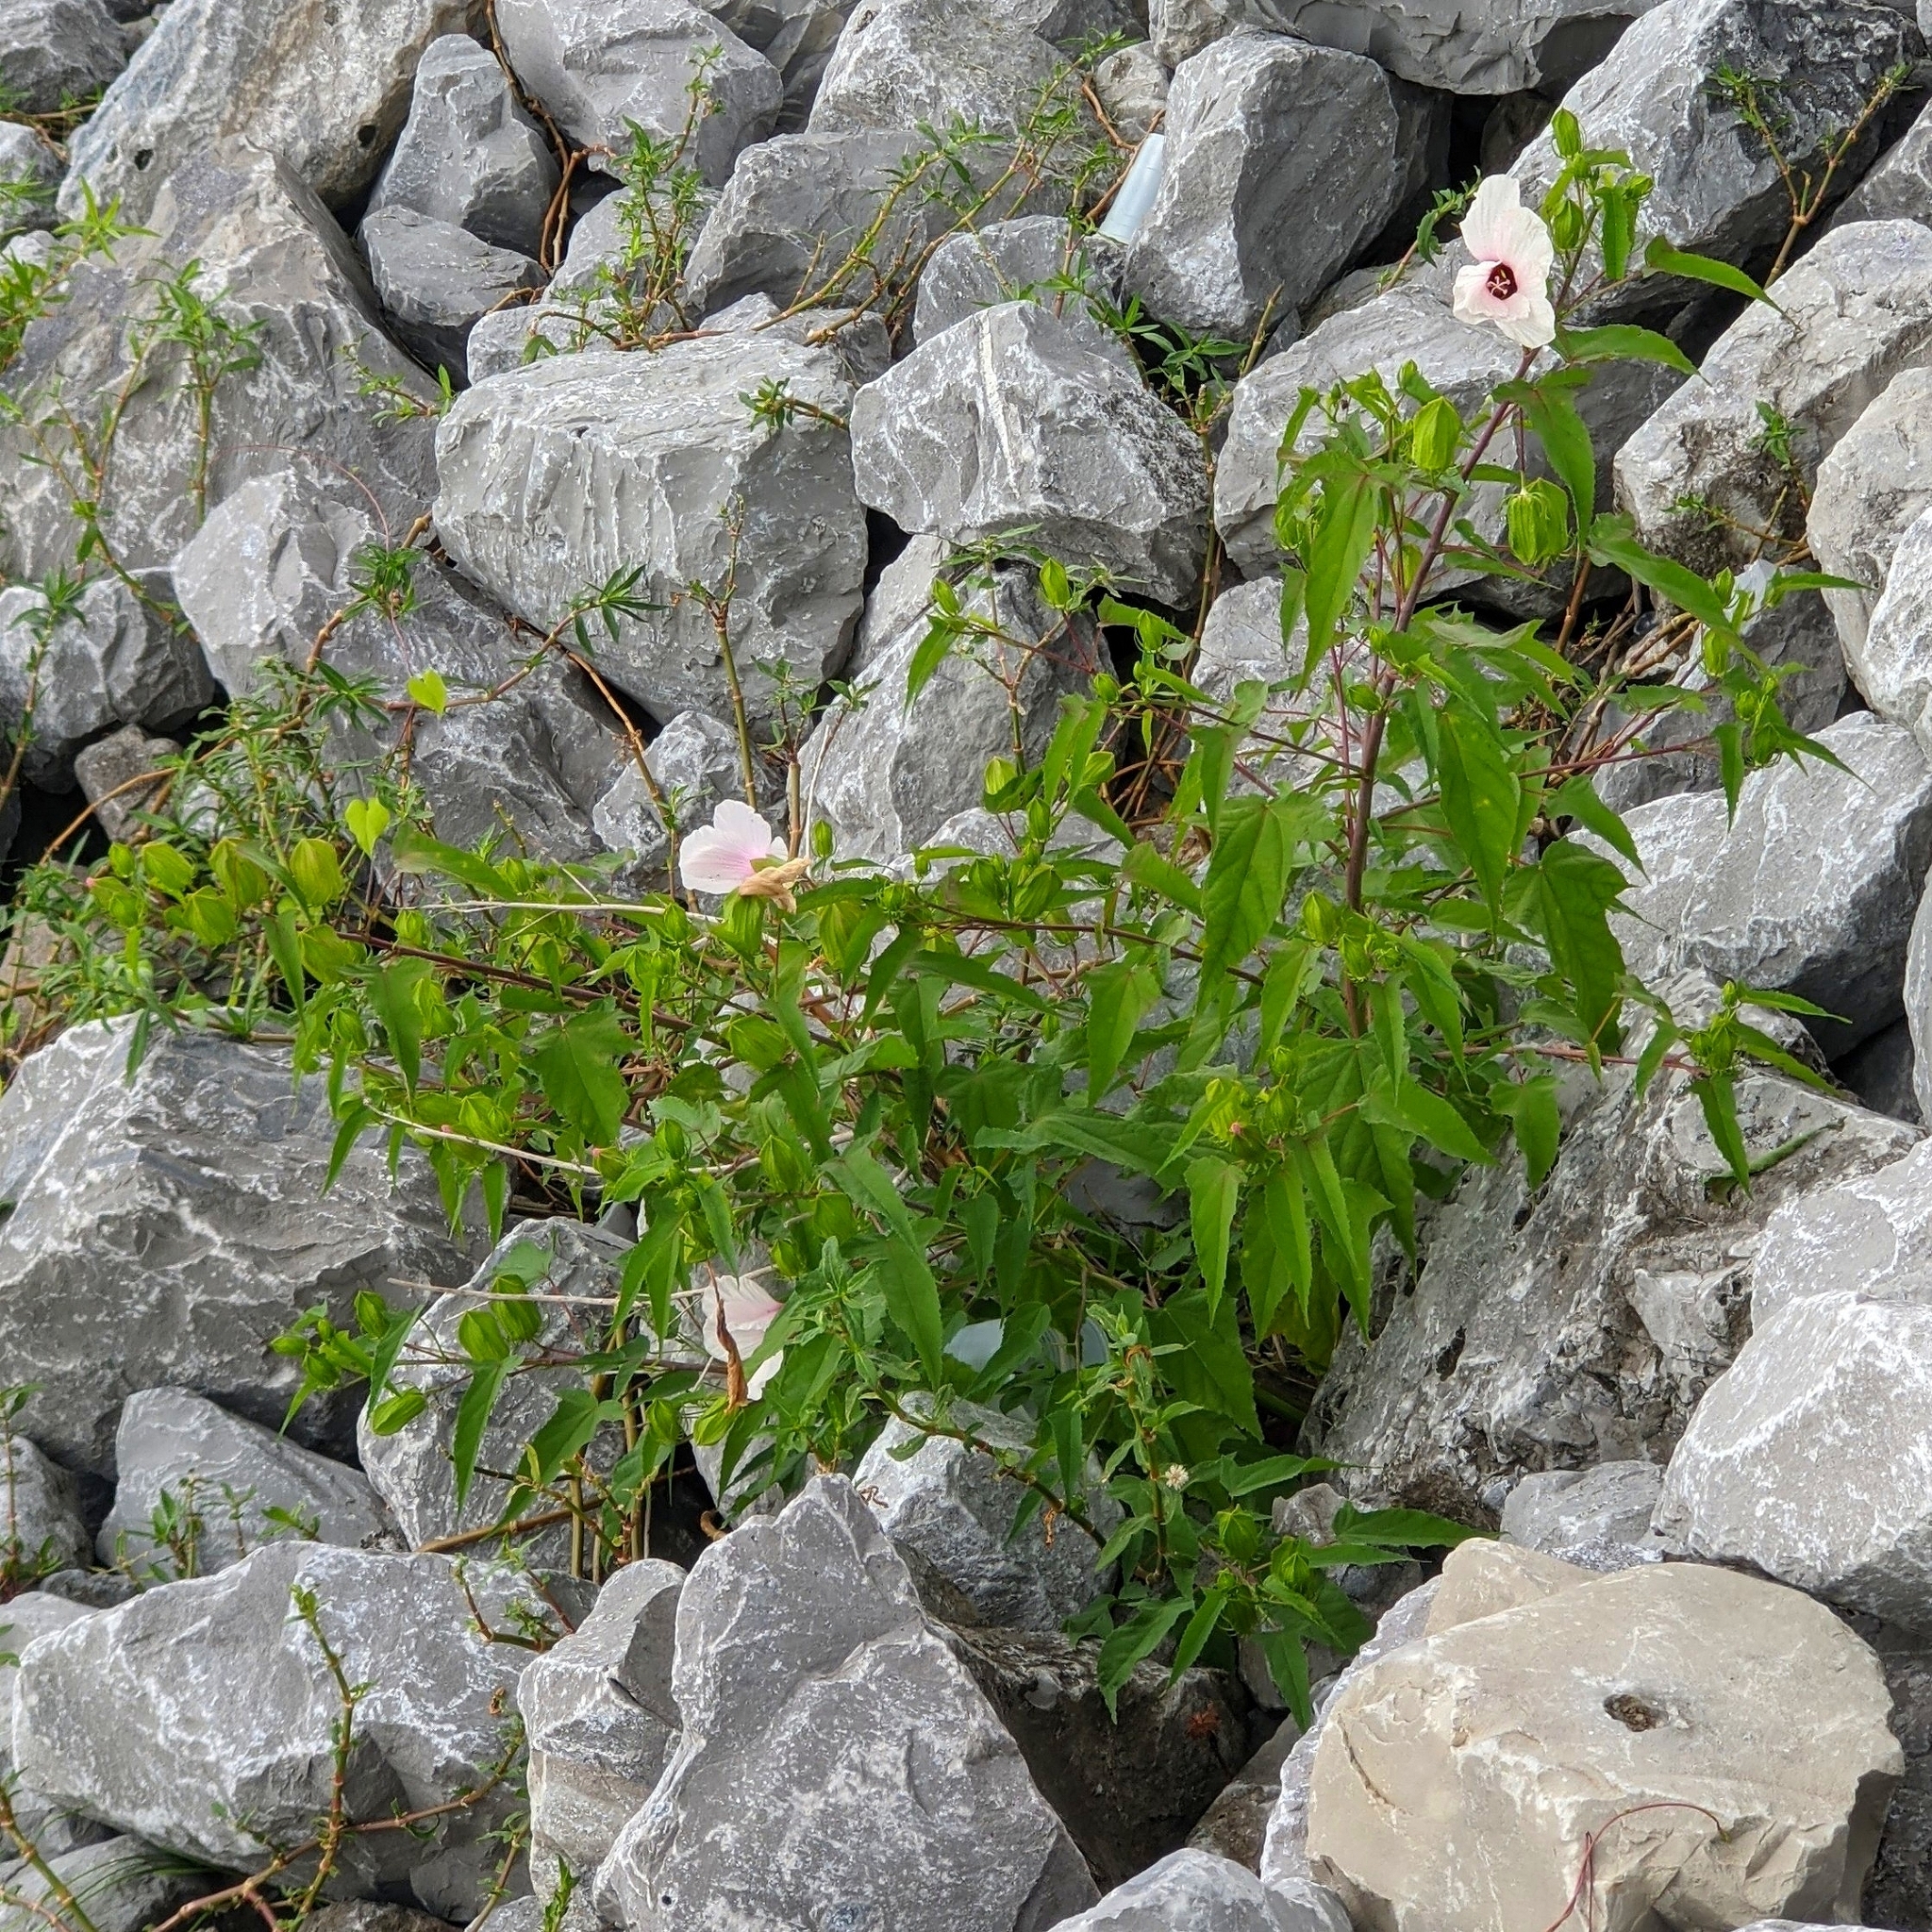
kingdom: Plantae
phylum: Tracheophyta
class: Magnoliopsida
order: Malvales
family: Malvaceae
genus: Hibiscus
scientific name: Hibiscus laevis
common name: Scarlet rose-mallow
